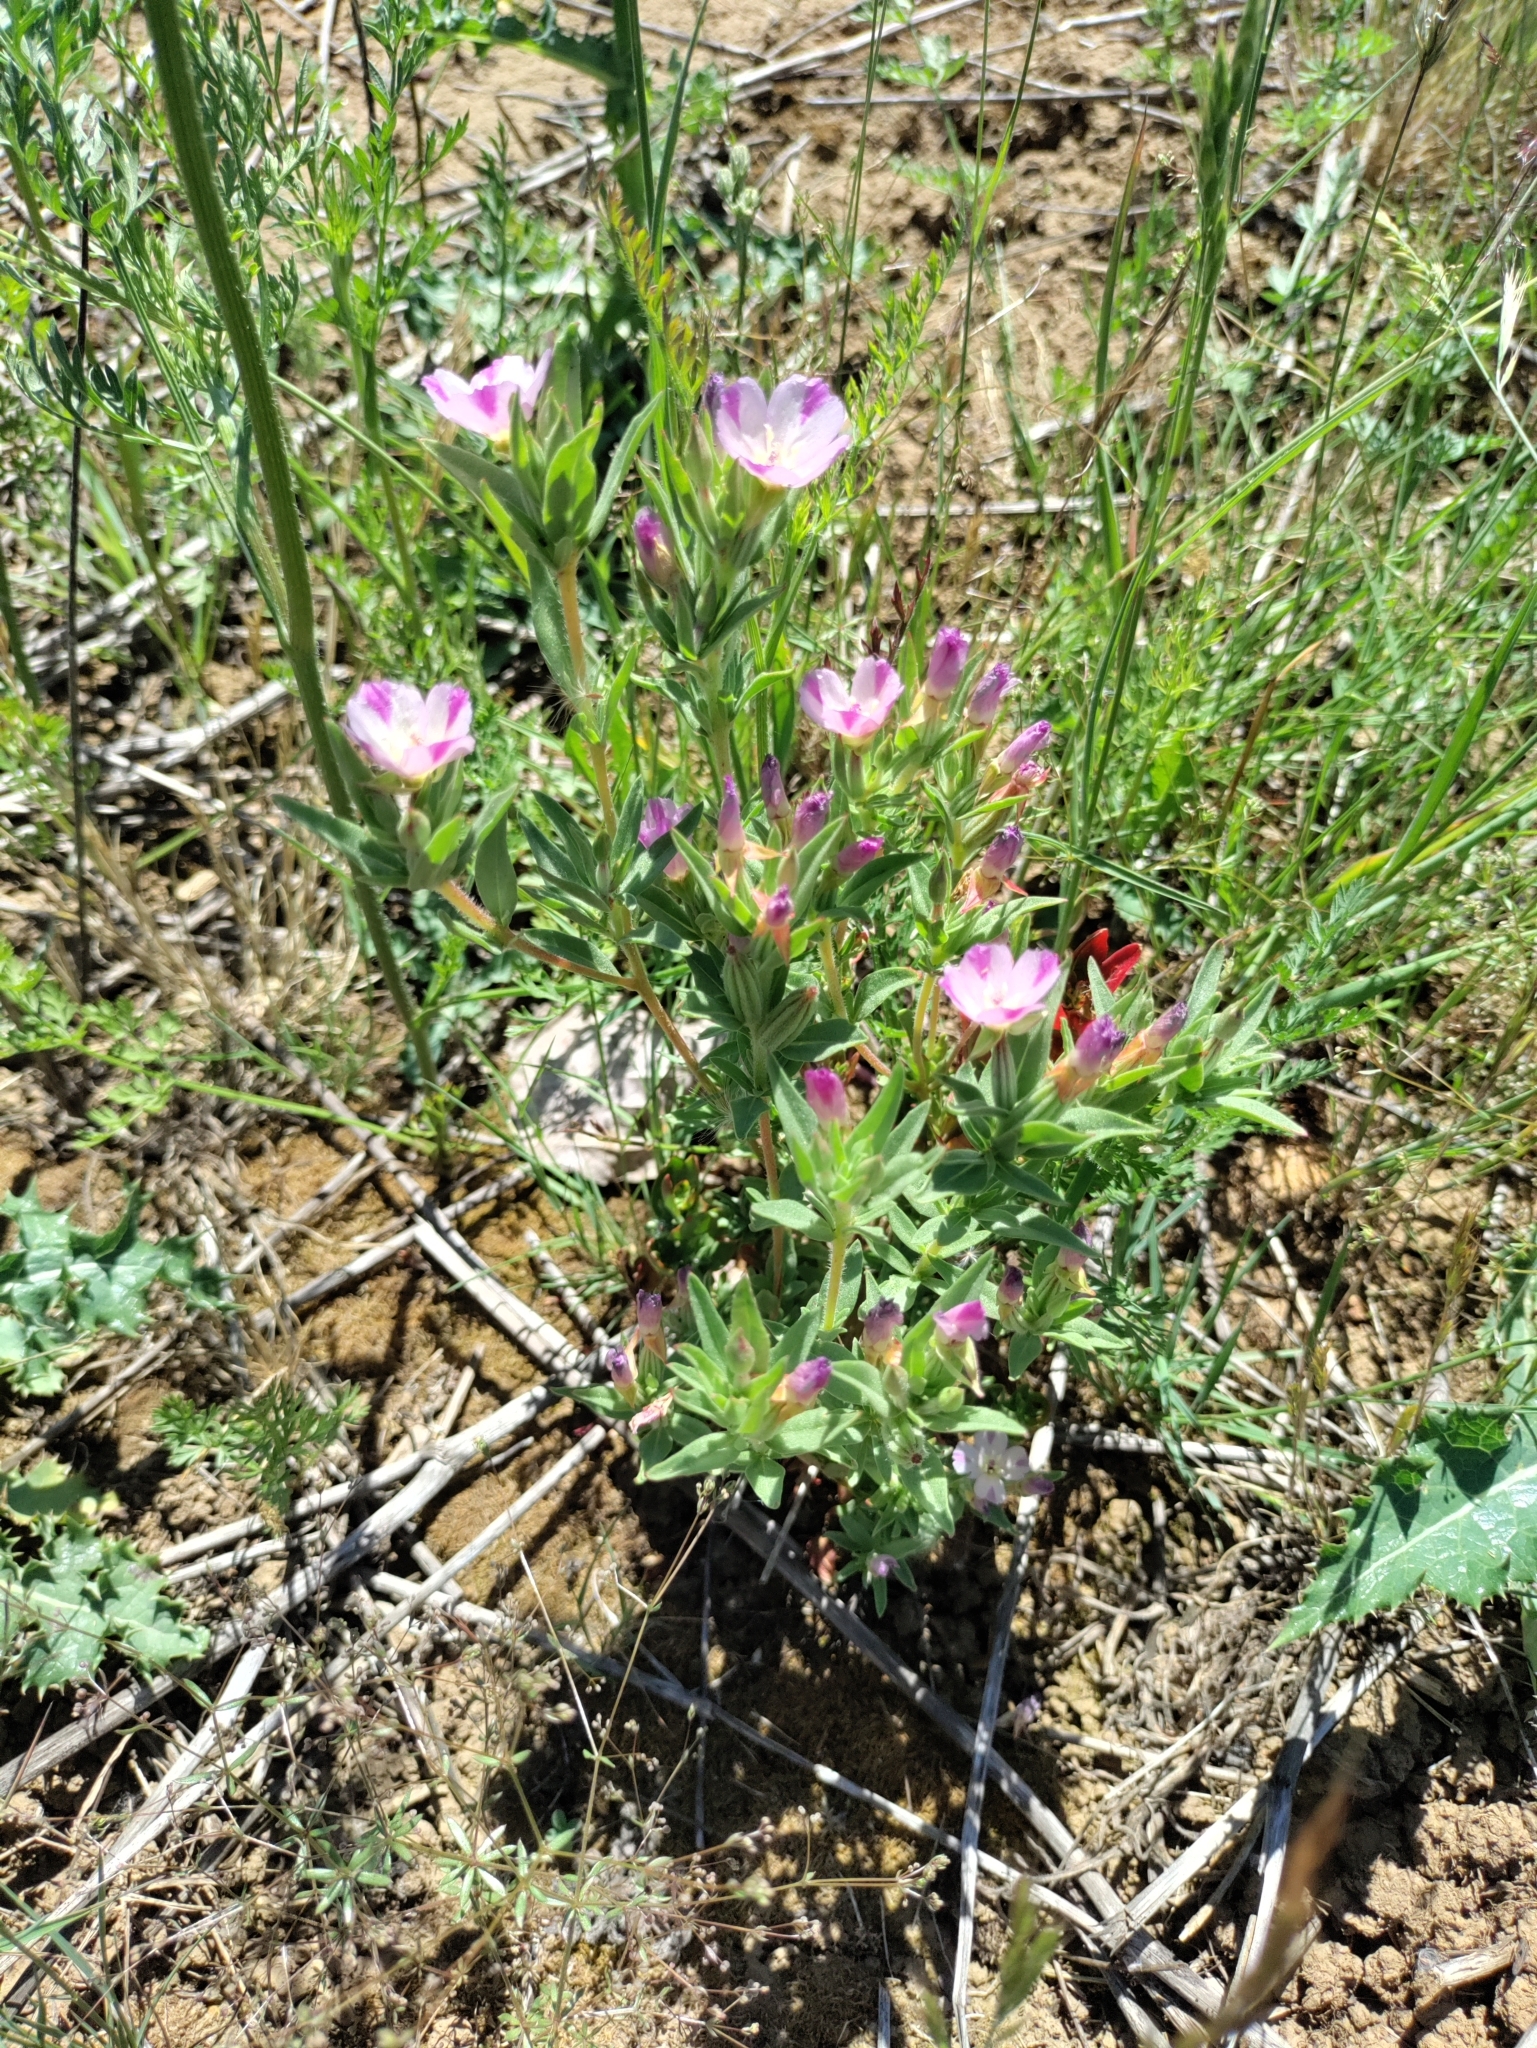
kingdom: Plantae
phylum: Tracheophyta
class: Magnoliopsida
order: Myrtales
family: Onagraceae
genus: Clarkia
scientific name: Clarkia purpurea
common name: Purple clarkia
